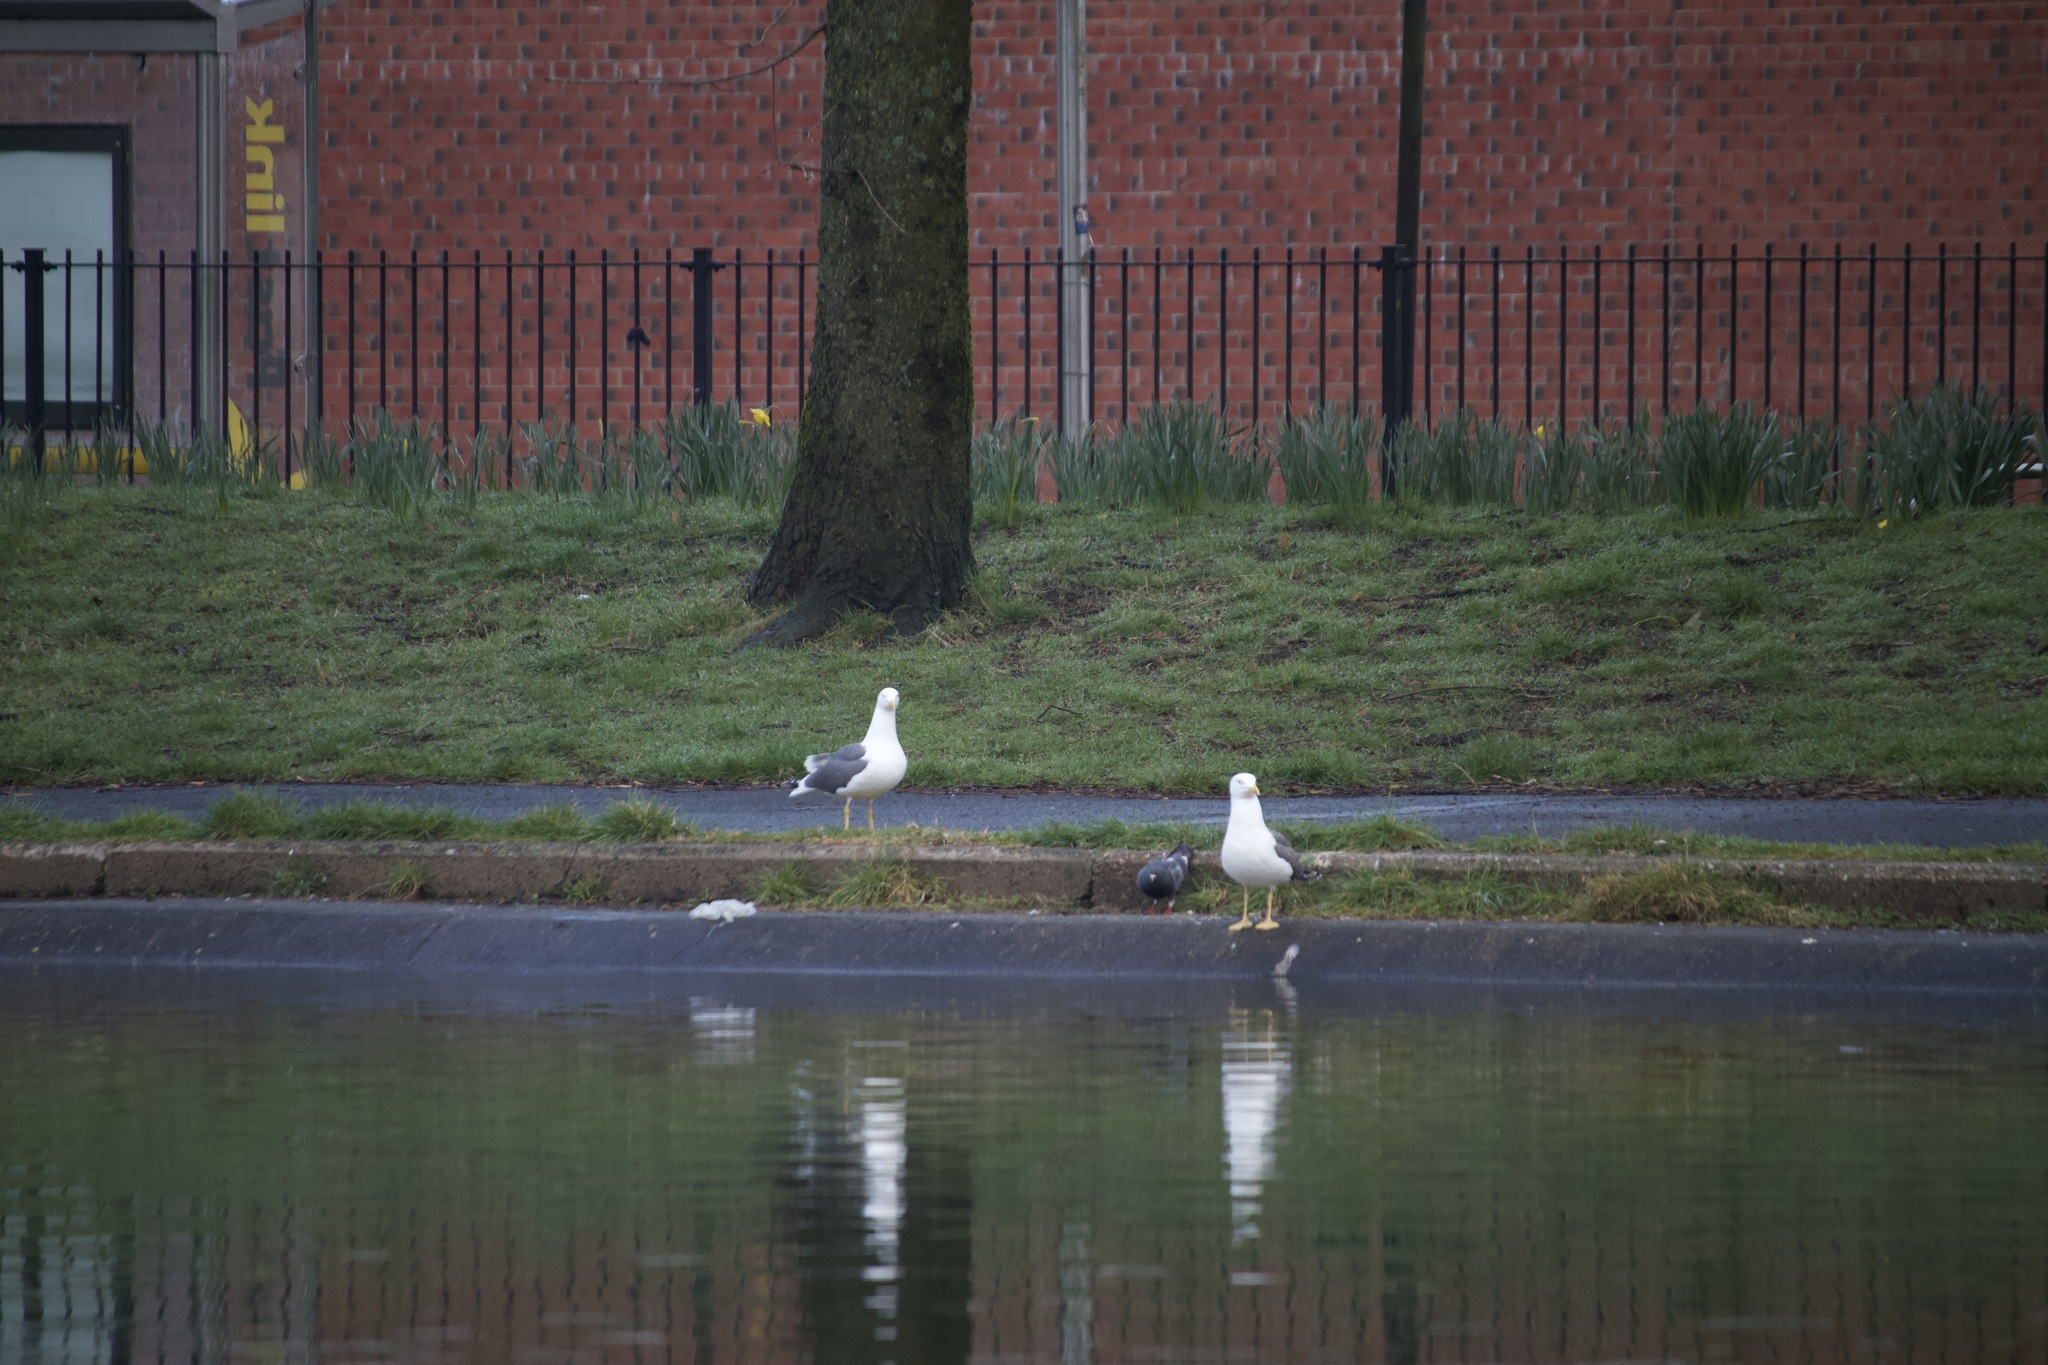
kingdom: Animalia
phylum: Chordata
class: Aves
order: Charadriiformes
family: Laridae
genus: Larus
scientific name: Larus fuscus
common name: Lesser black-backed gull
